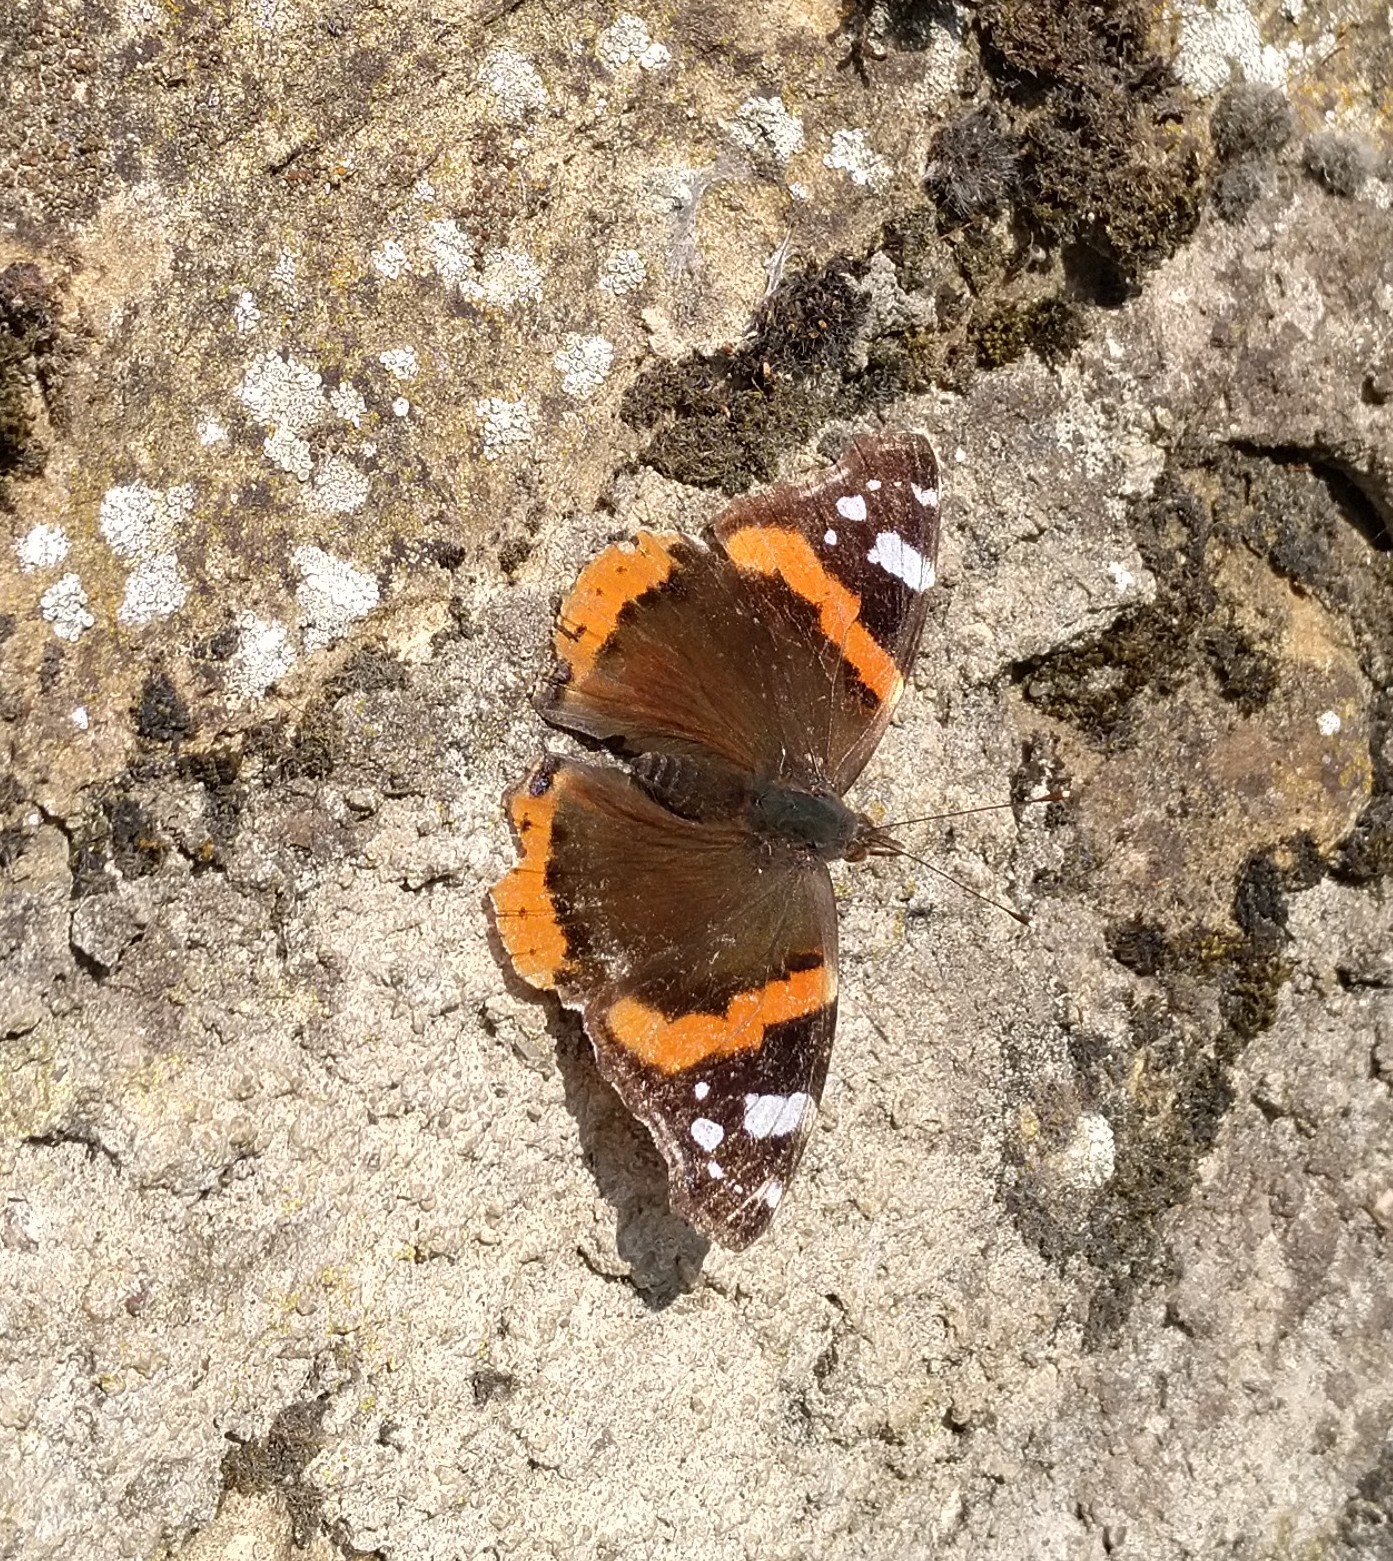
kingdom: Animalia
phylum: Arthropoda
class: Insecta
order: Lepidoptera
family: Nymphalidae
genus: Vanessa
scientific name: Vanessa atalanta
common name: Red admiral
